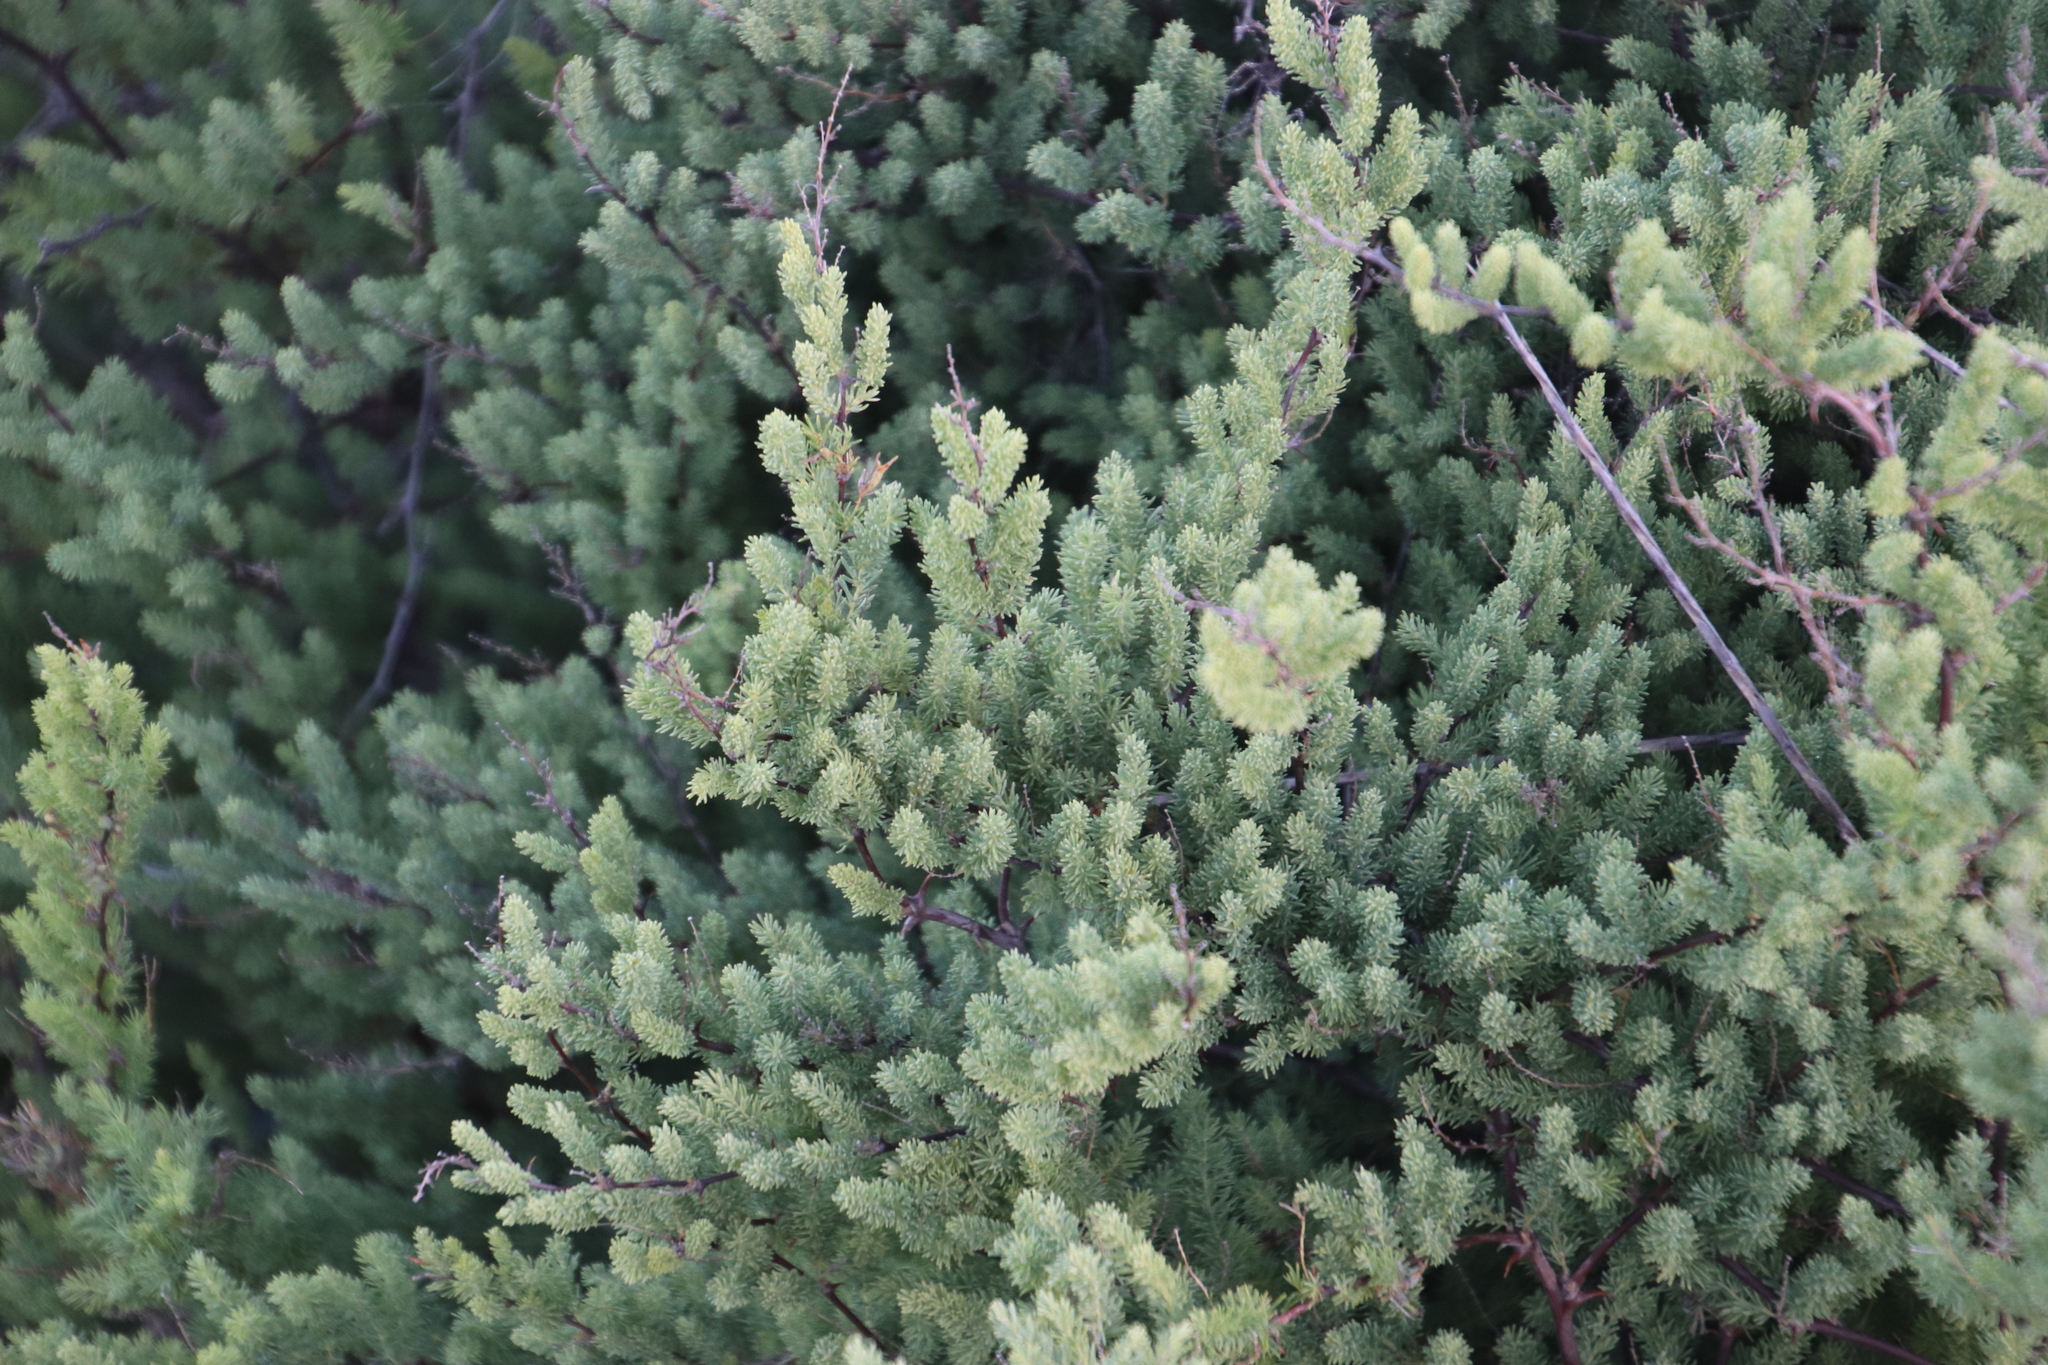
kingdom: Plantae
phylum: Tracheophyta
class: Liliopsida
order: Asparagales
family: Asparagaceae
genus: Asparagus
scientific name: Asparagus rubicundus
